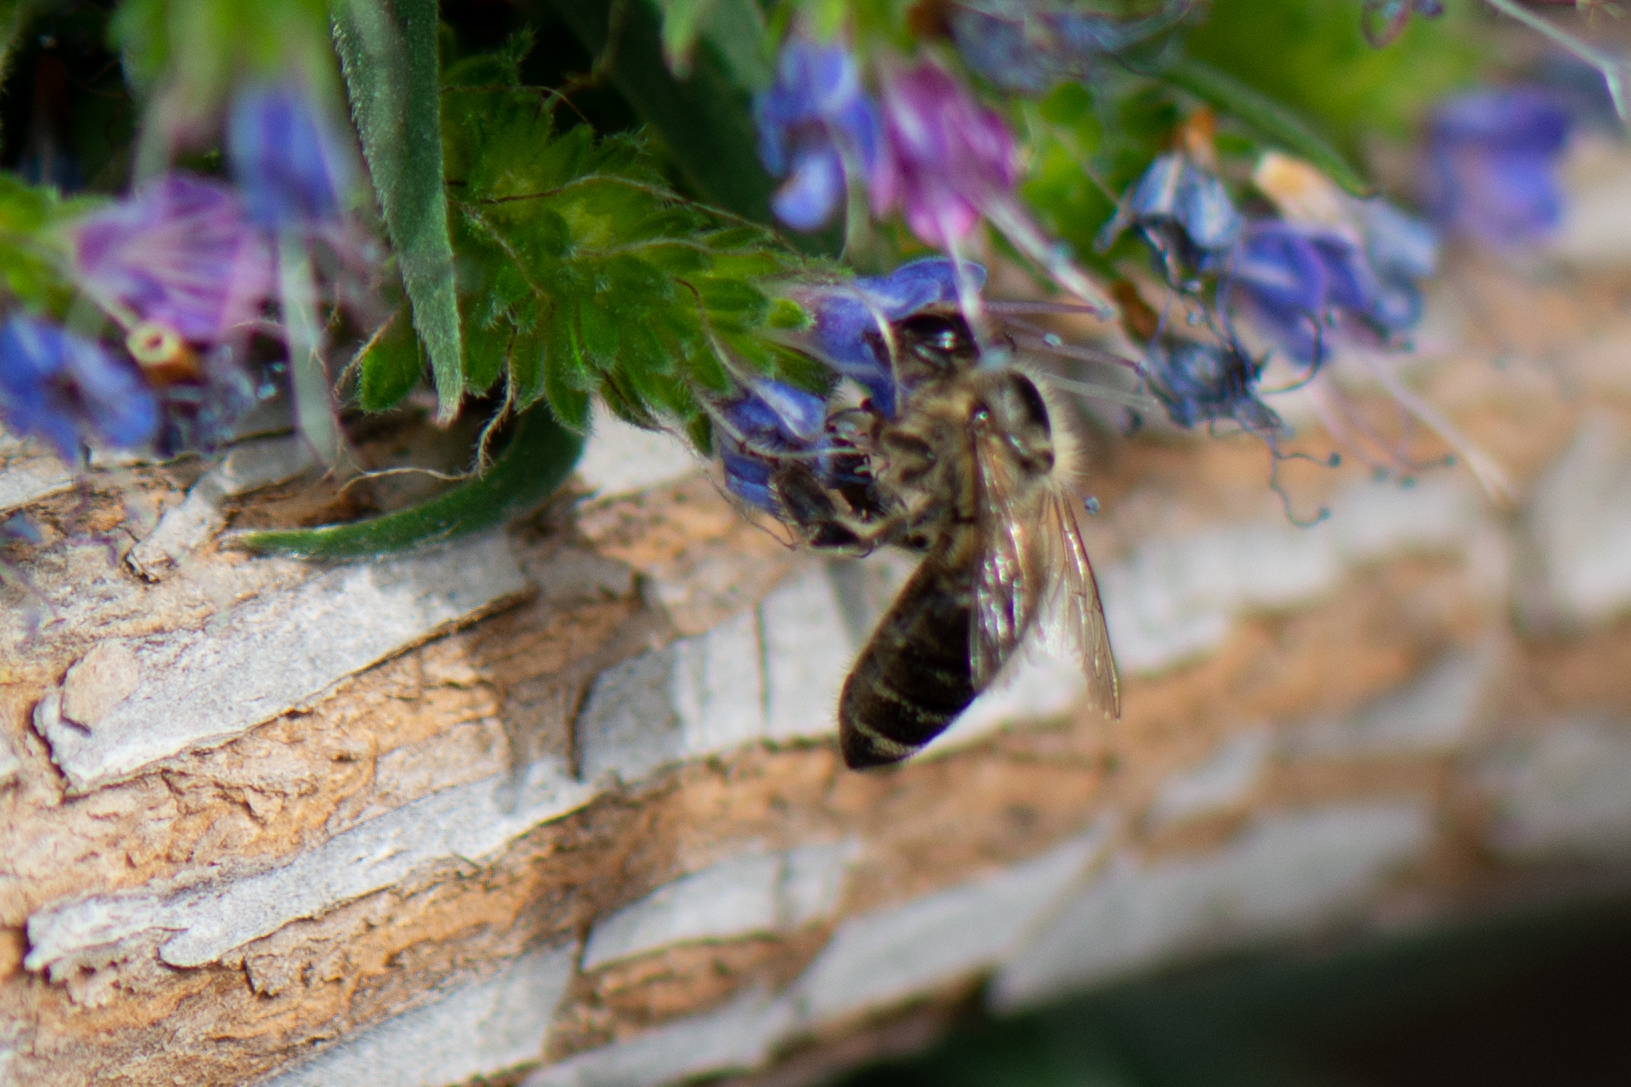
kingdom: Animalia
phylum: Arthropoda
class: Insecta
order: Hymenoptera
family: Apidae
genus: Apis
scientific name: Apis mellifera
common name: Honey bee
